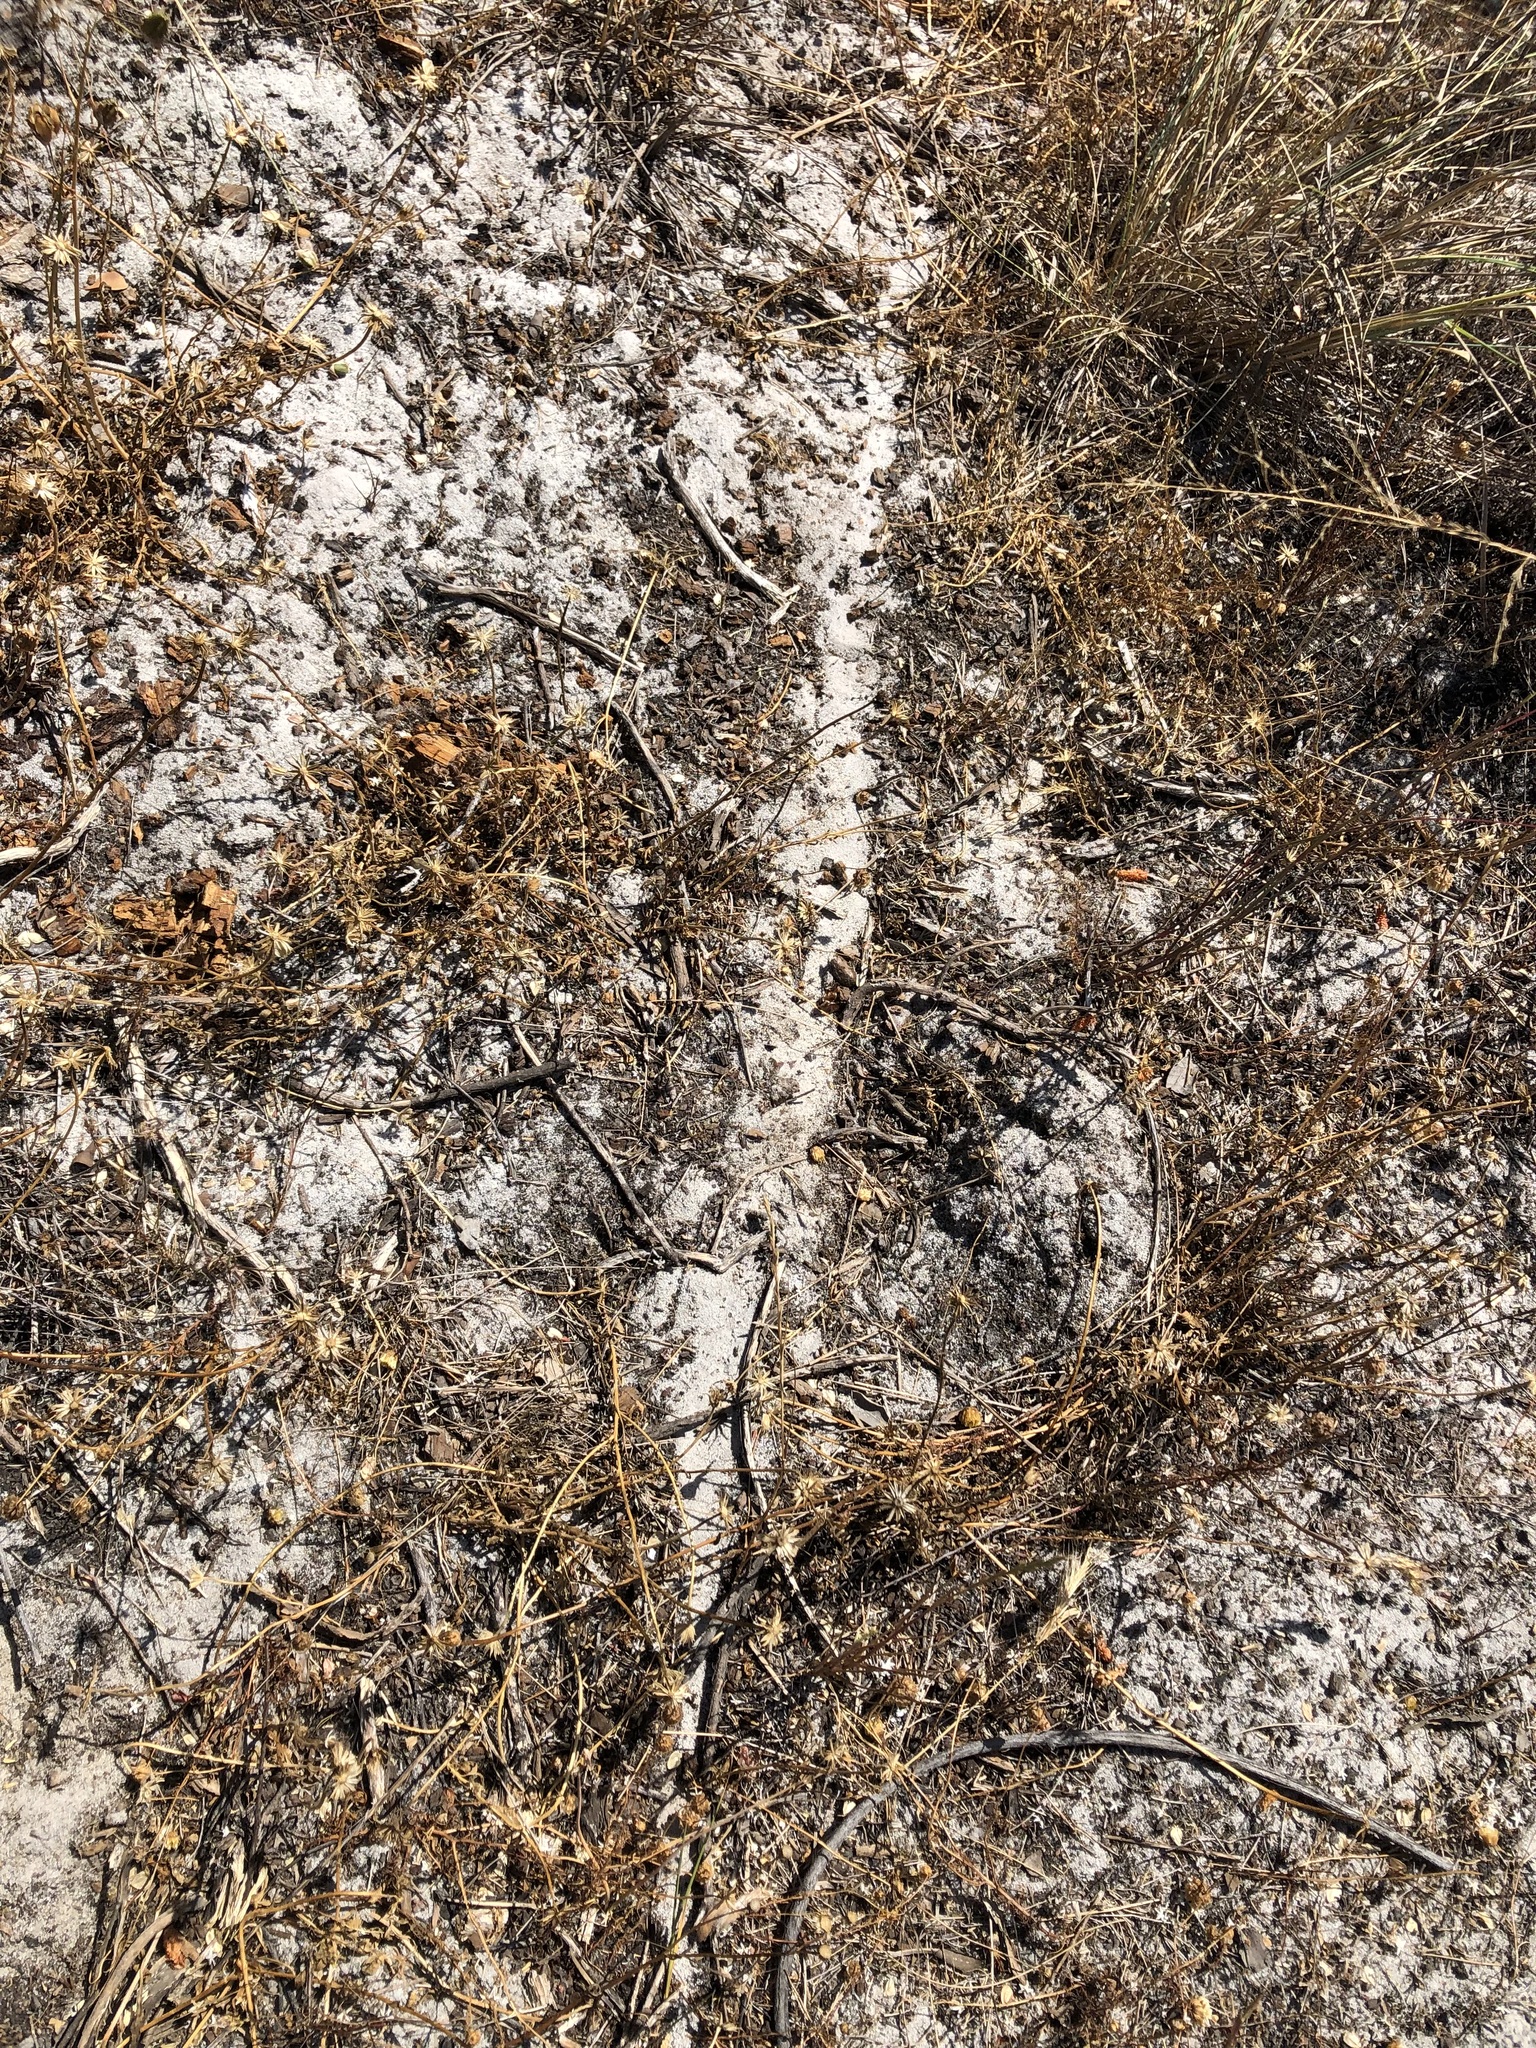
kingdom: Animalia
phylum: Arthropoda
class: Insecta
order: Hymenoptera
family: Formicidae
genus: Messor
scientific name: Messor capensis
